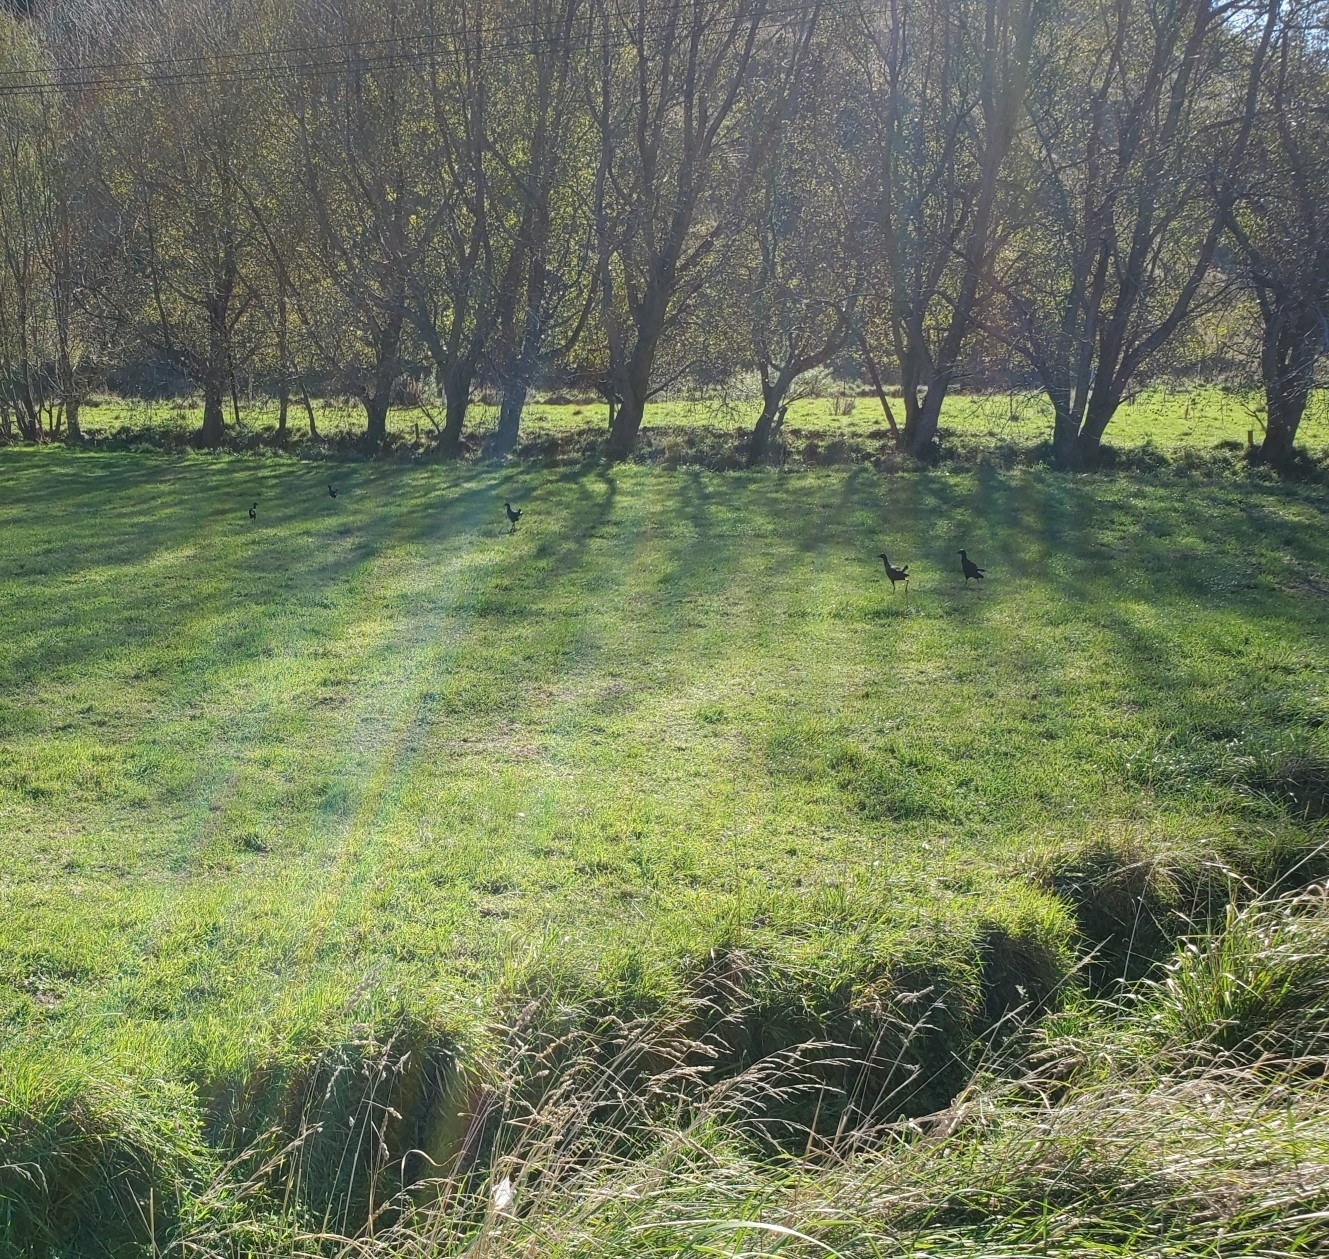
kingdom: Animalia
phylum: Chordata
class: Aves
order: Gruiformes
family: Rallidae
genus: Porphyrio
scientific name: Porphyrio melanotus
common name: Australasian swamphen
